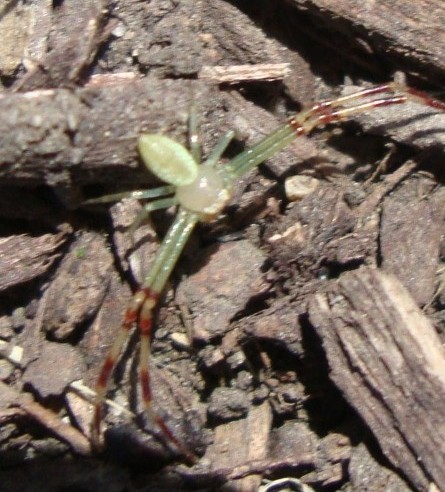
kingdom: Animalia
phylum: Arthropoda
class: Arachnida
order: Araneae
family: Thomisidae
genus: Misumessus
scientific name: Misumessus oblongus
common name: American green crab spider
